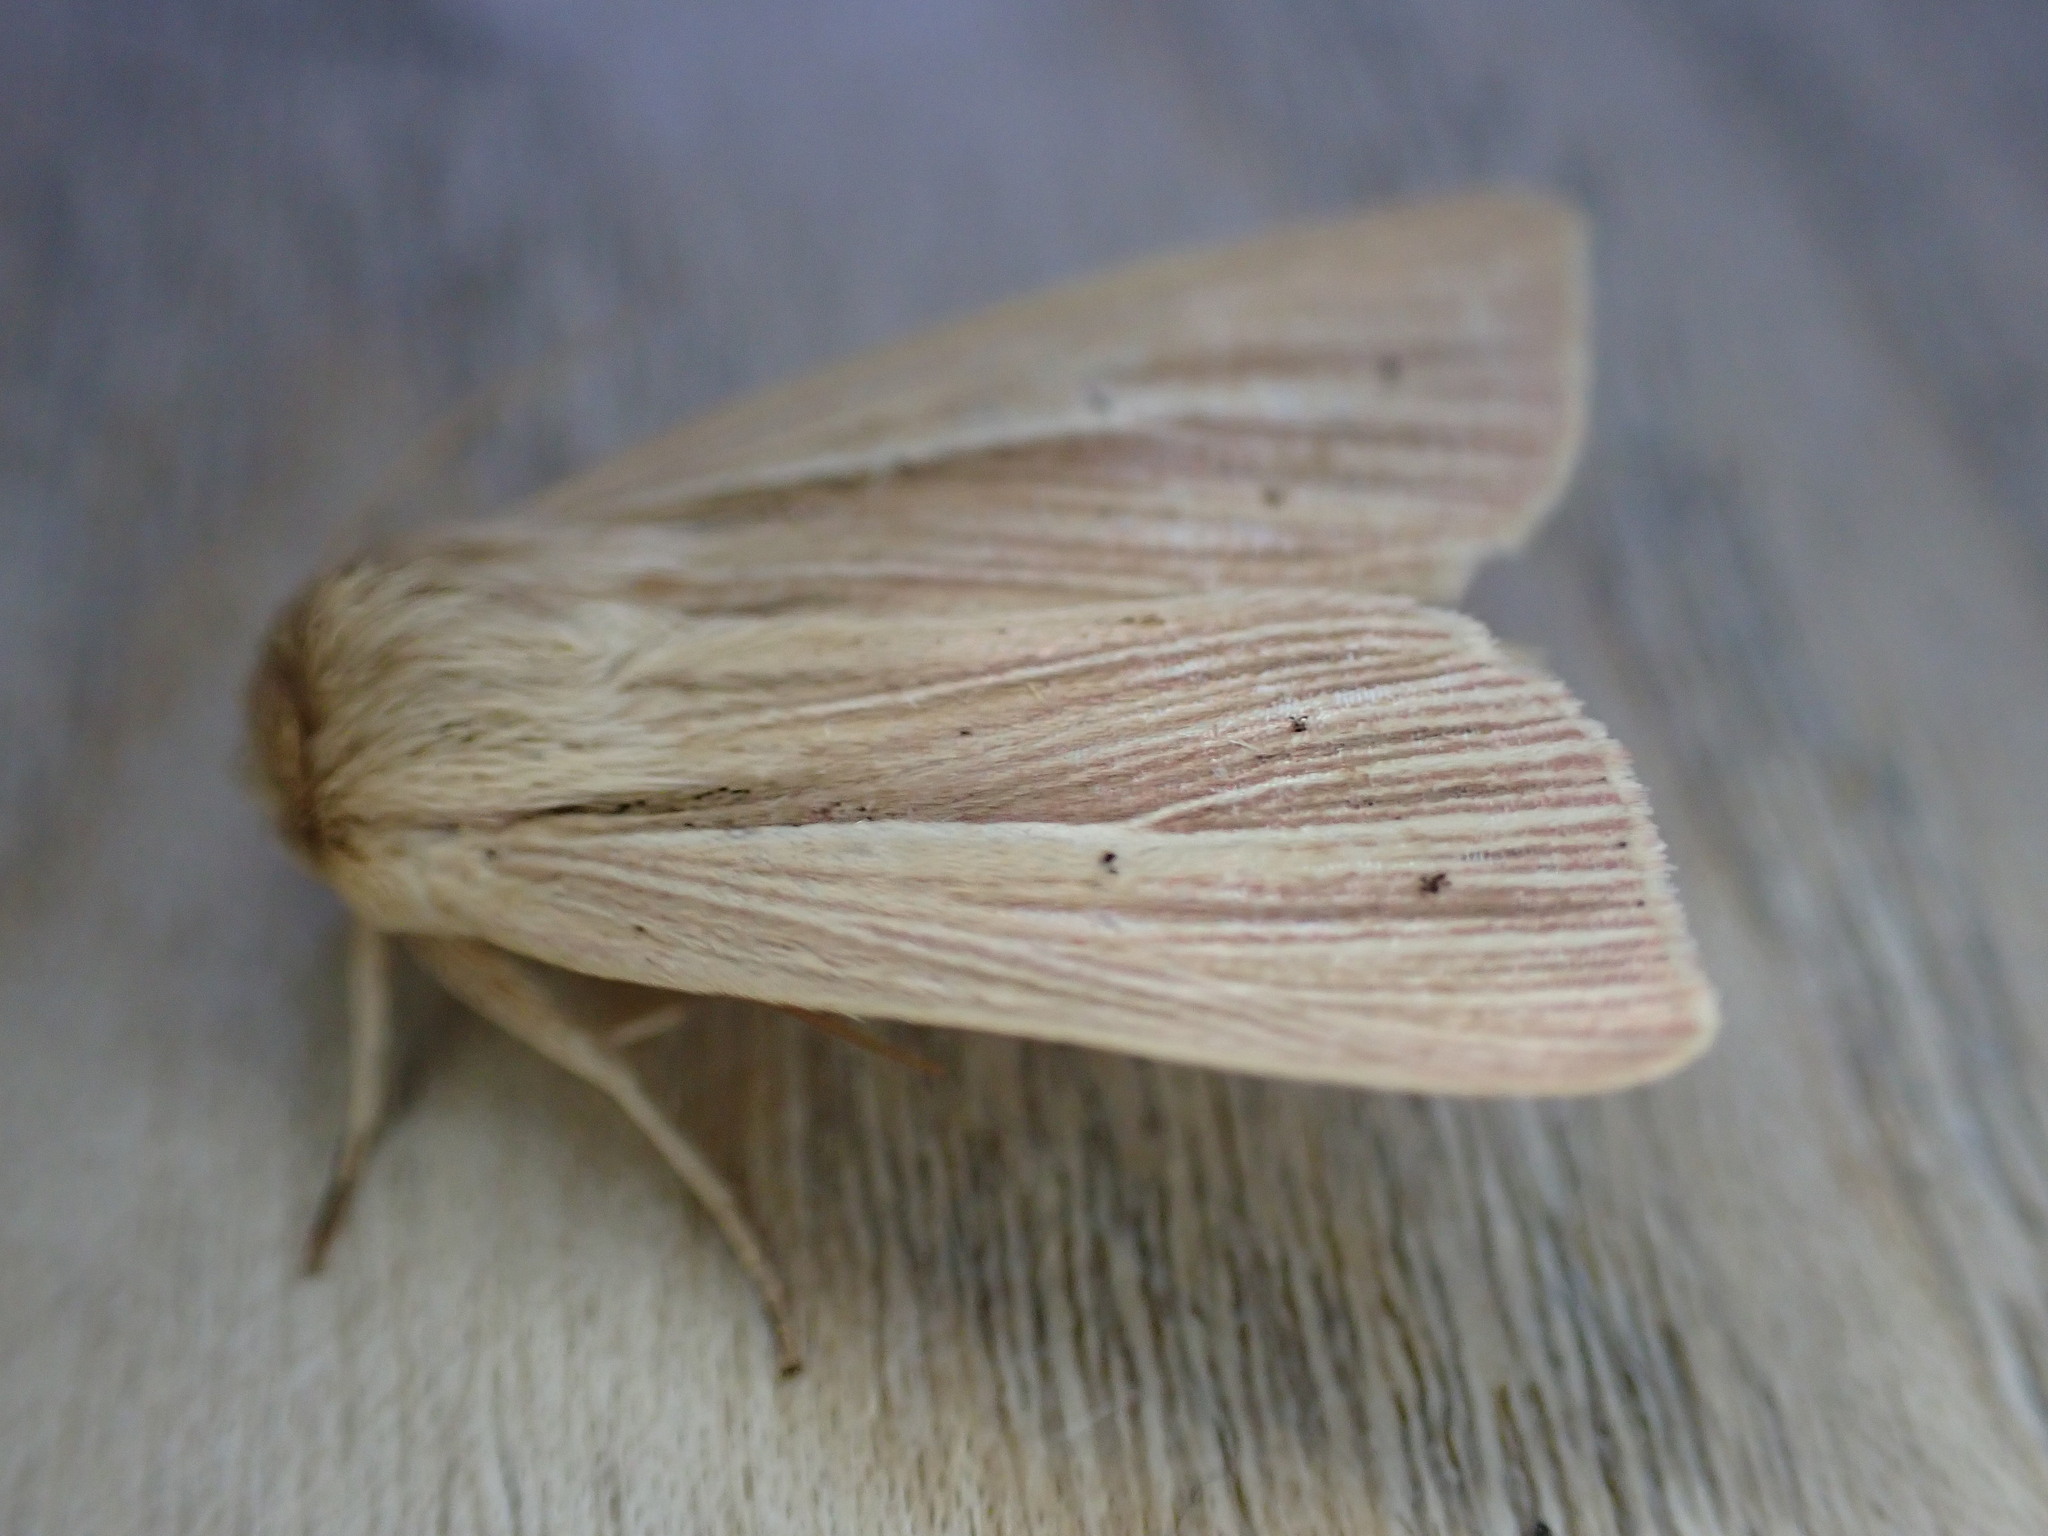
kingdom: Animalia
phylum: Arthropoda
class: Insecta
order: Lepidoptera
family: Noctuidae
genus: Mythimna
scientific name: Mythimna impura
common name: Smoky wainscot
